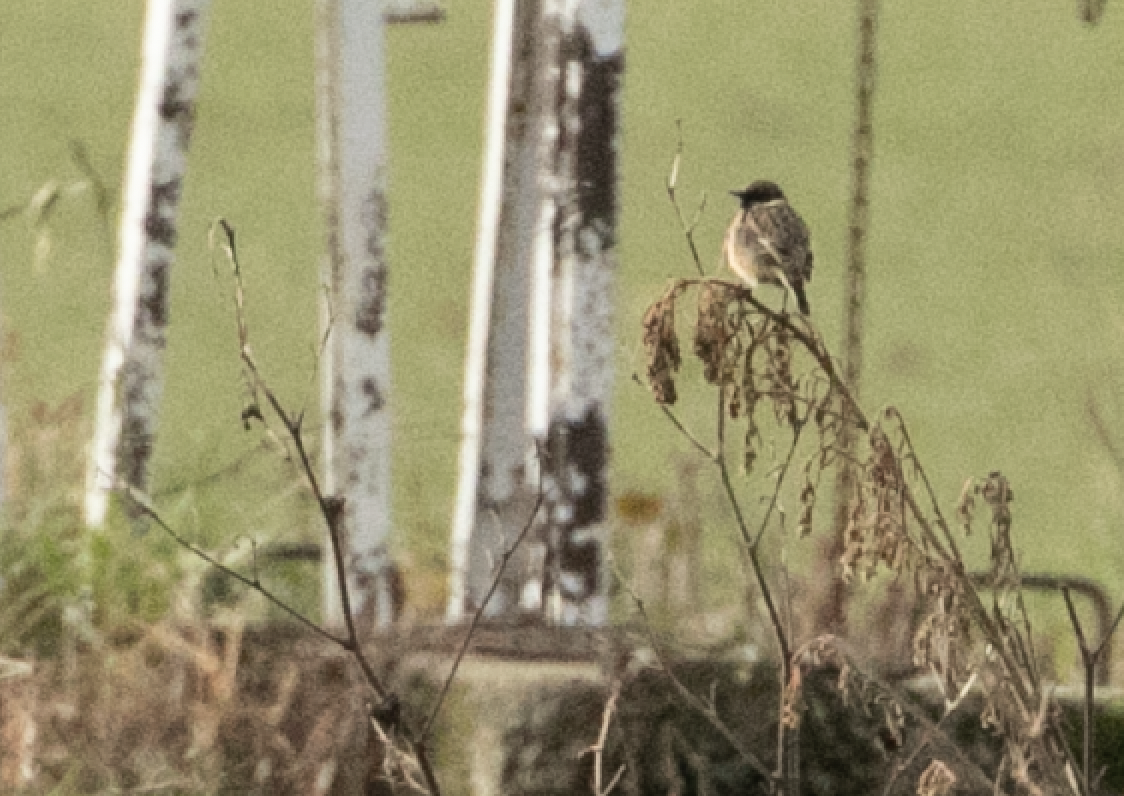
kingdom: Animalia
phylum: Chordata
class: Aves
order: Passeriformes
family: Muscicapidae
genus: Saxicola
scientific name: Saxicola rubicola
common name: European stonechat
